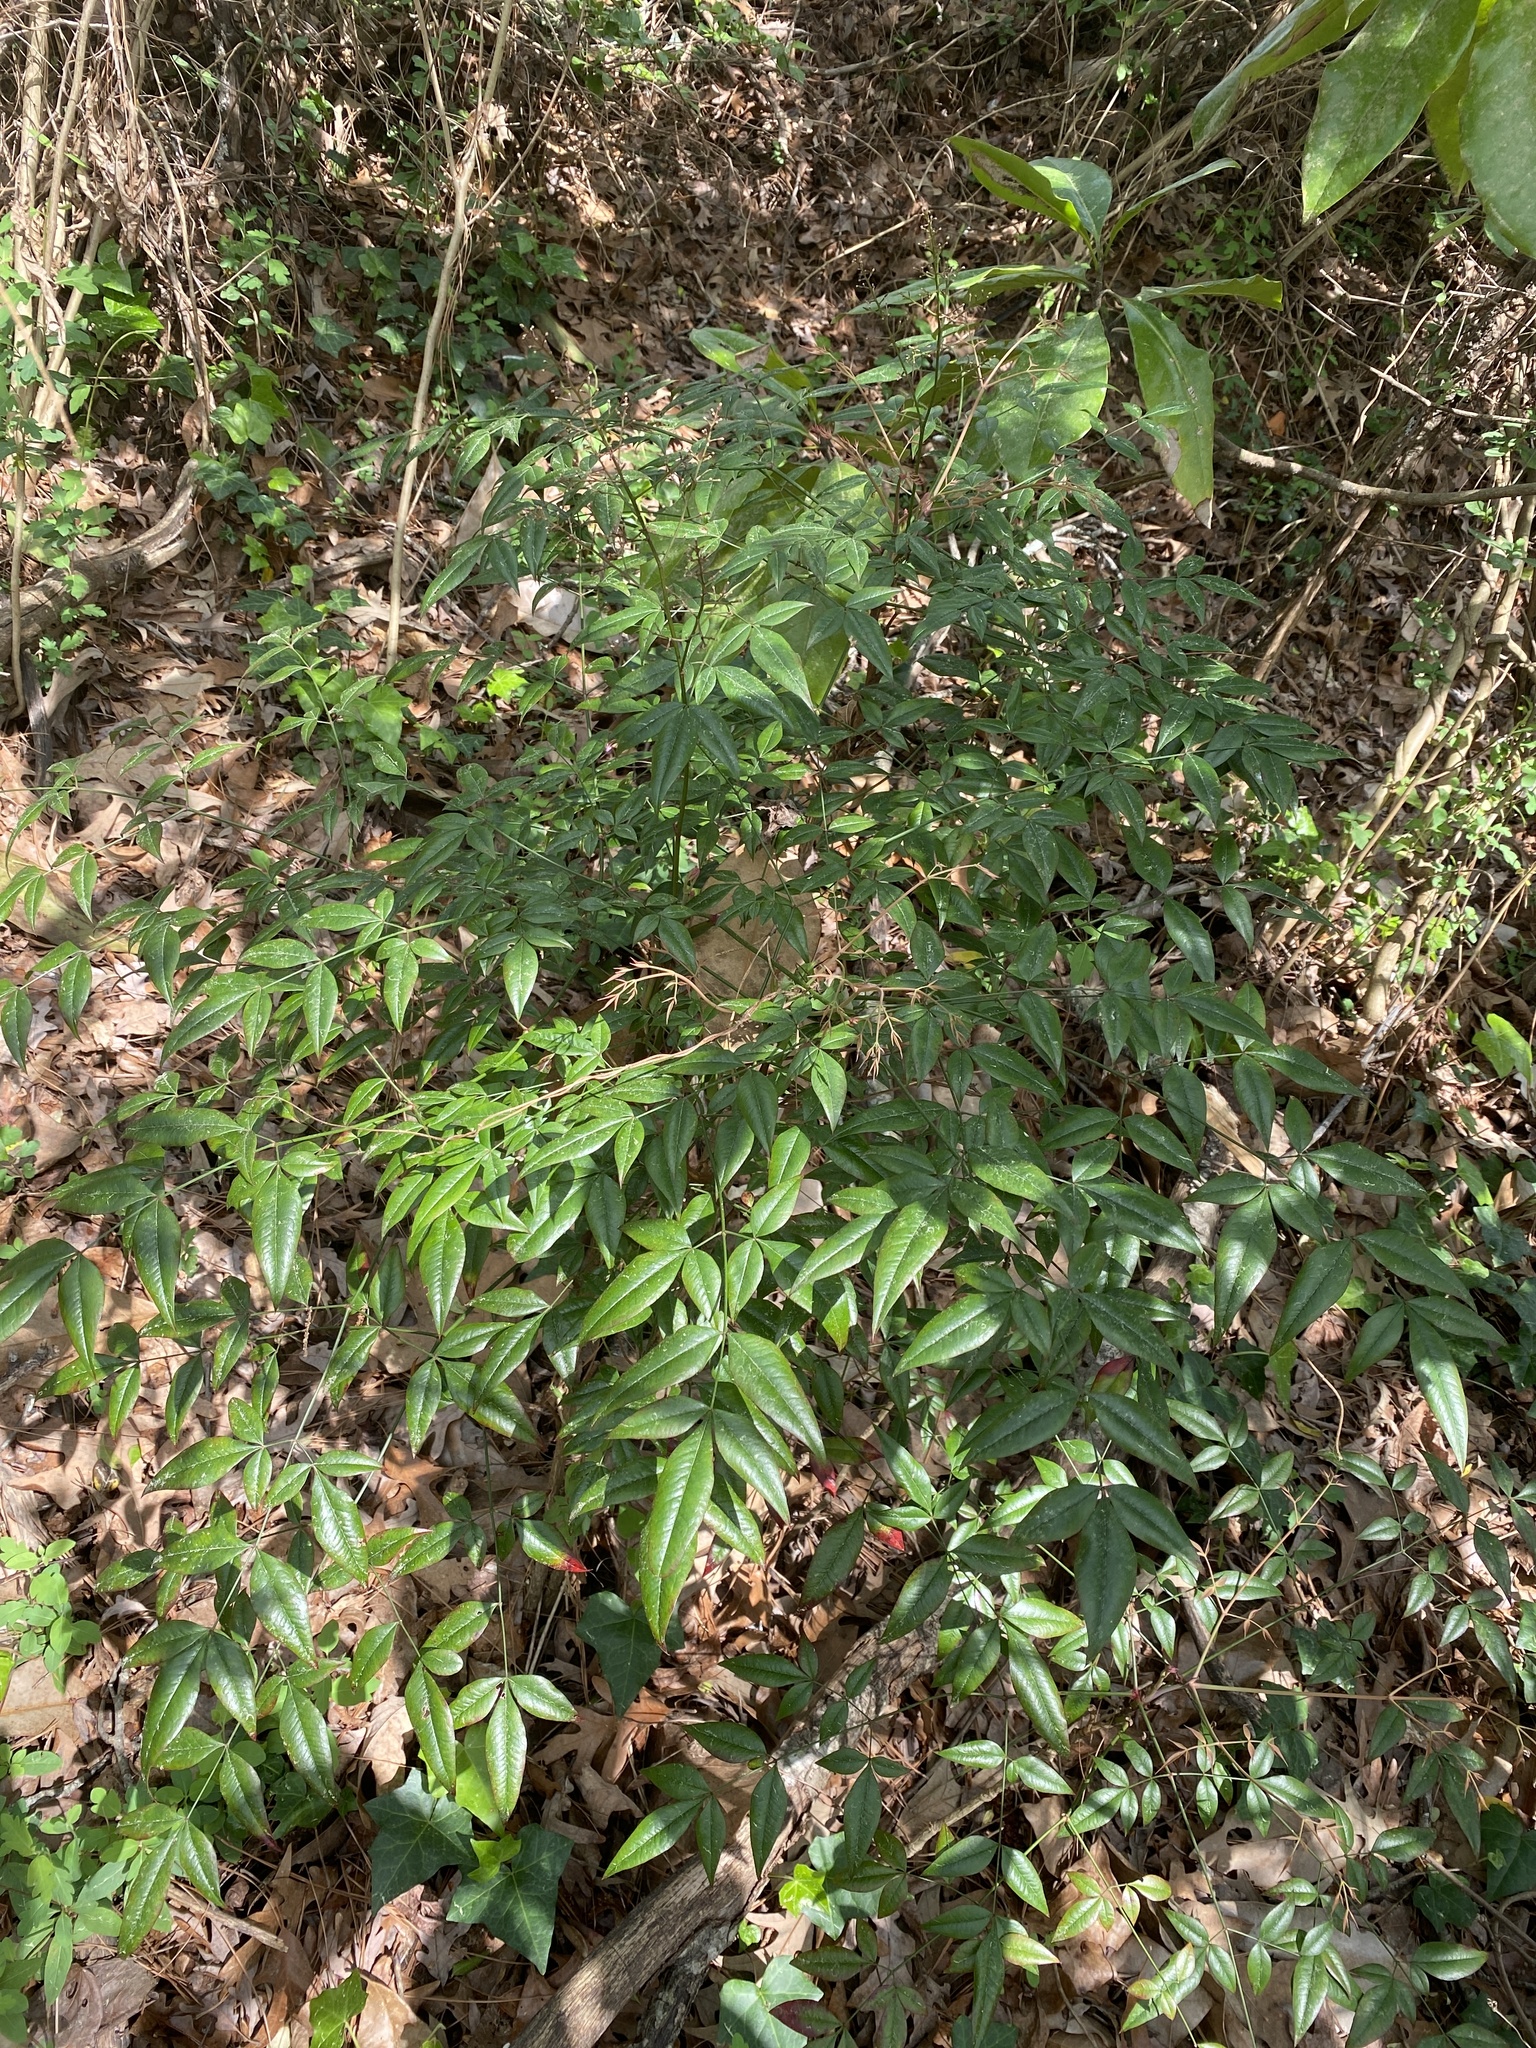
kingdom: Plantae
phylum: Tracheophyta
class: Magnoliopsida
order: Ranunculales
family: Berberidaceae
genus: Nandina
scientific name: Nandina domestica
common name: Sacred bamboo
